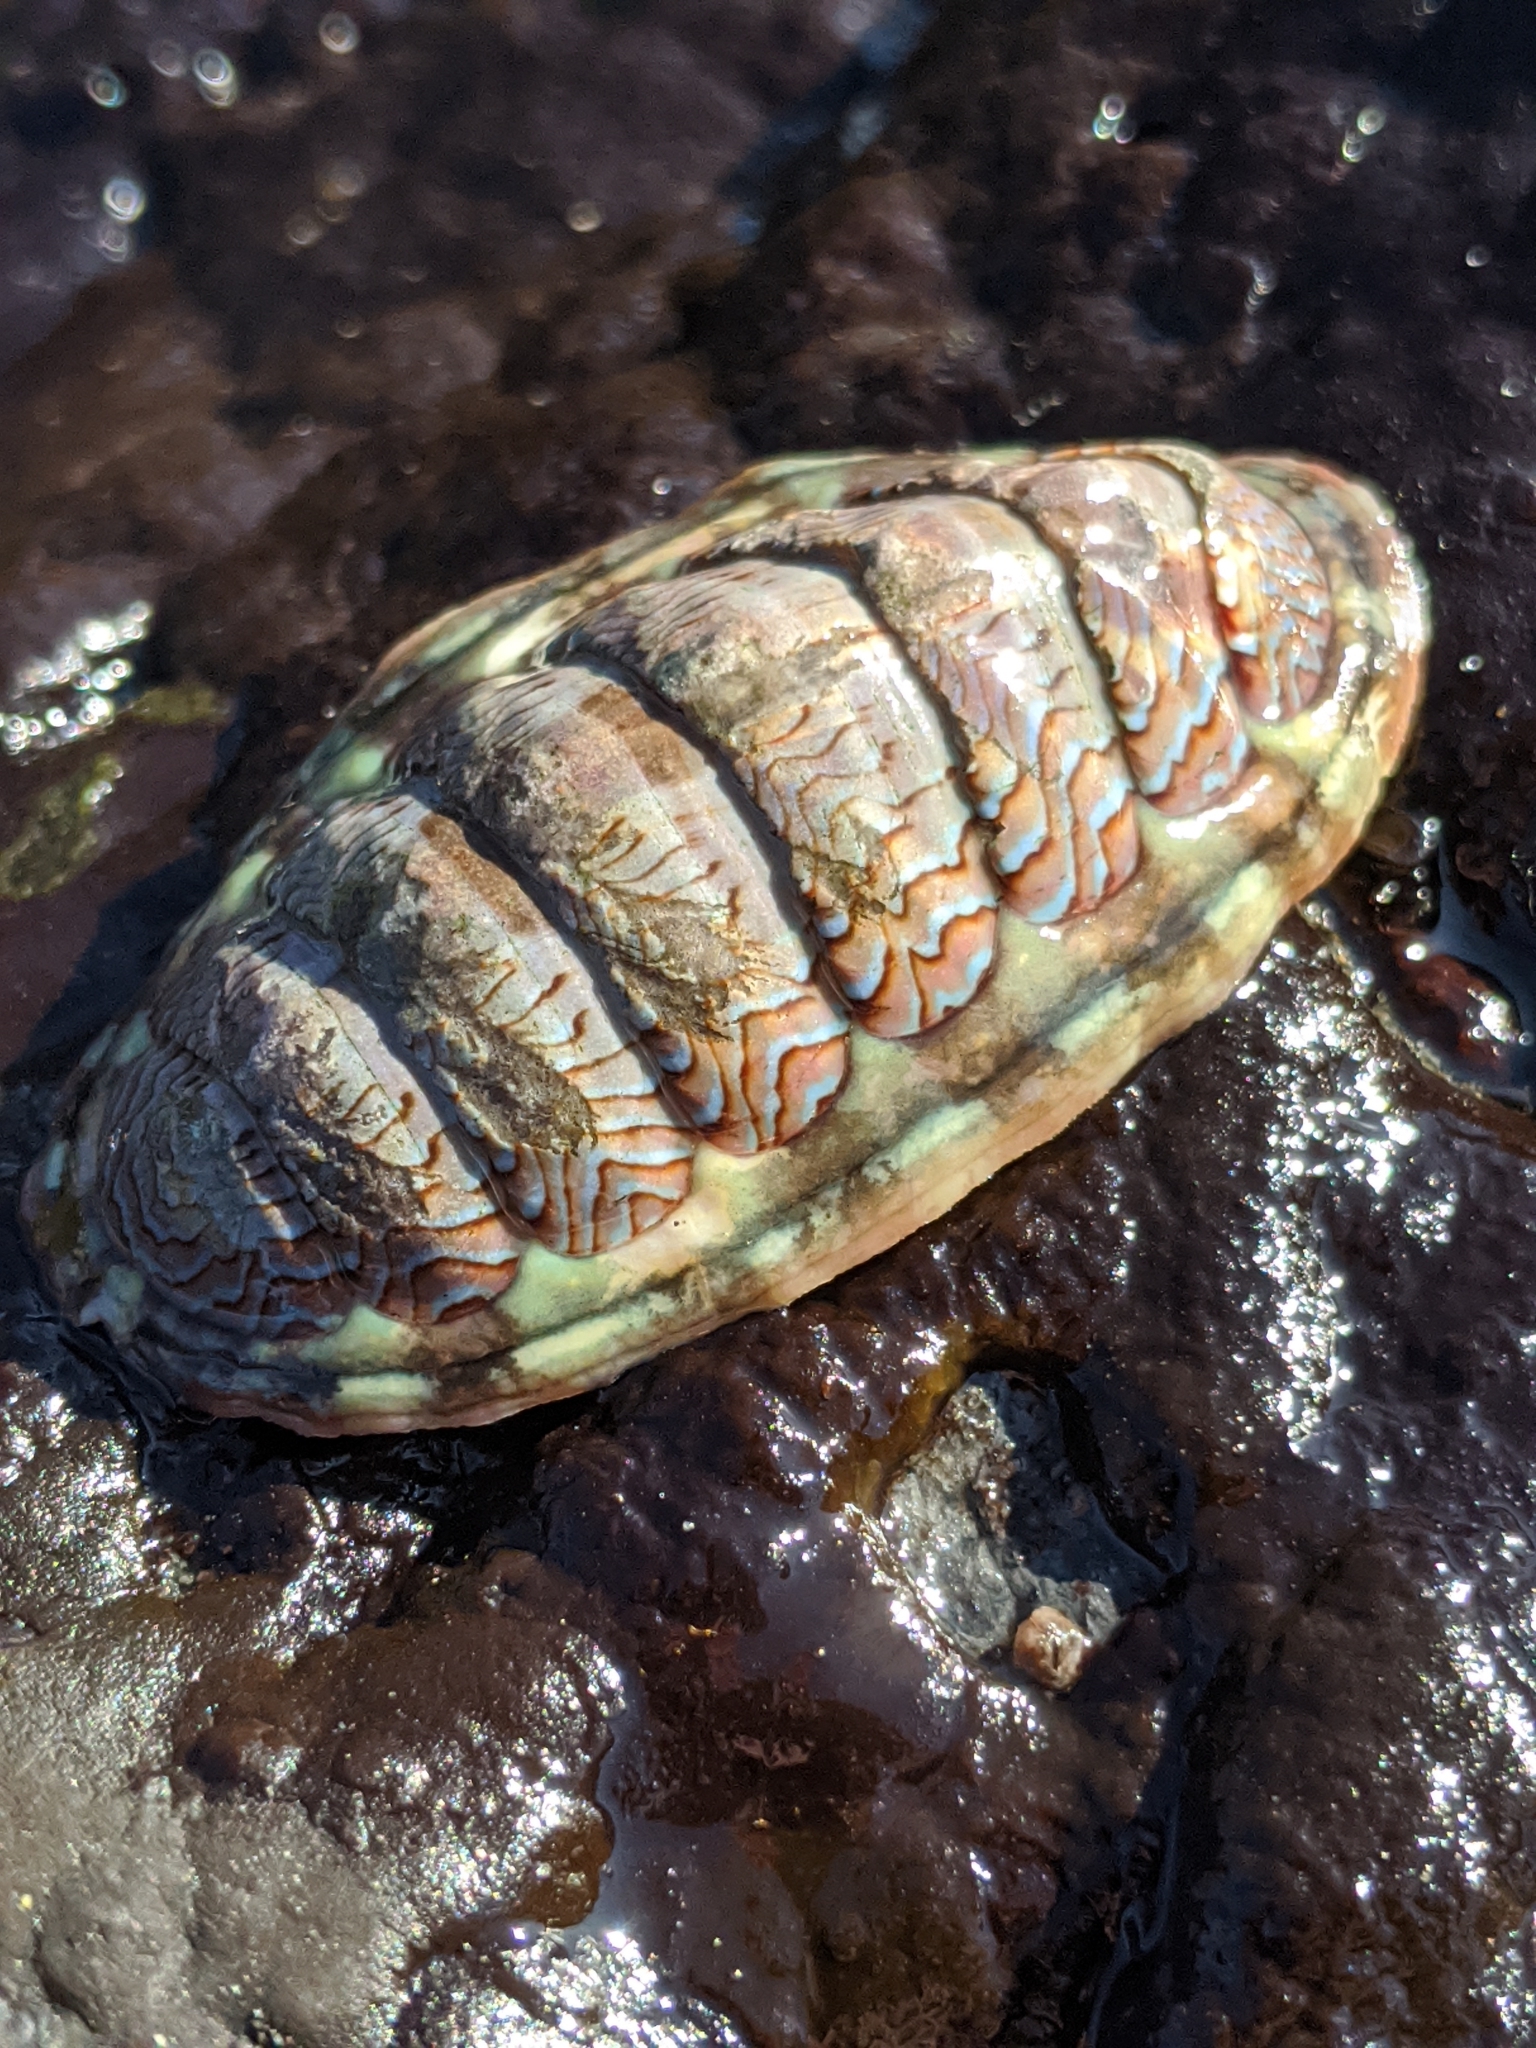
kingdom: Animalia
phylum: Mollusca
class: Polyplacophora
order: Chitonida
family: Tonicellidae
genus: Tonicella
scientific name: Tonicella lokii
